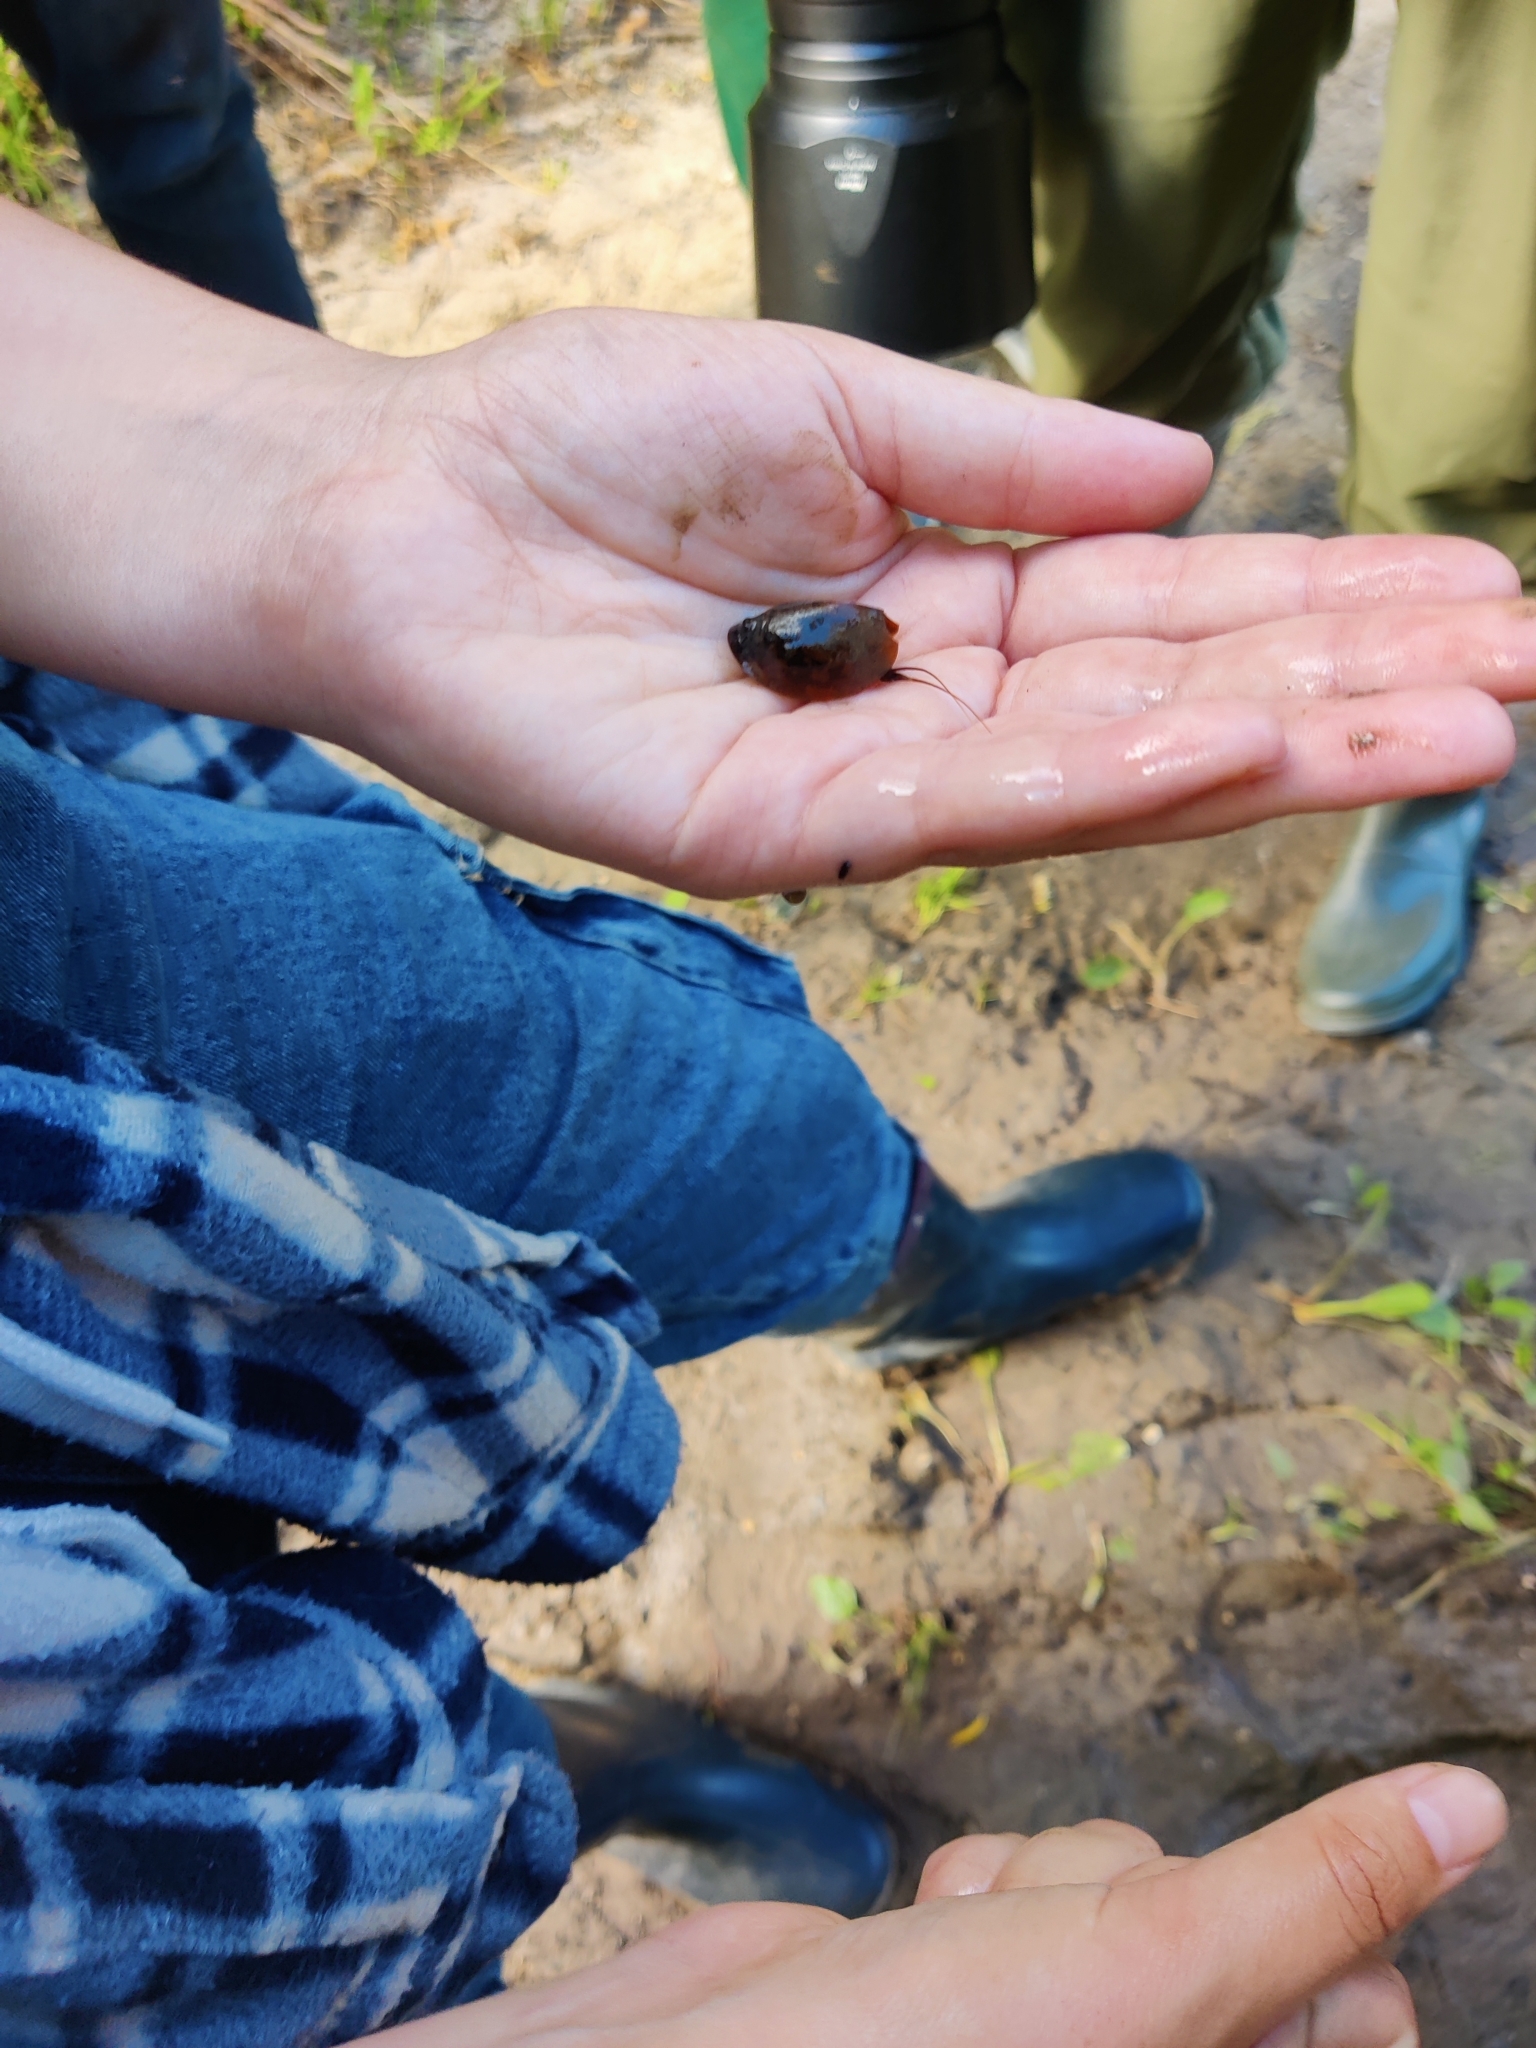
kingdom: Animalia
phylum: Arthropoda
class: Branchiopoda
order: Notostraca
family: Triopsidae
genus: Lepidurus
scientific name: Lepidurus apus
